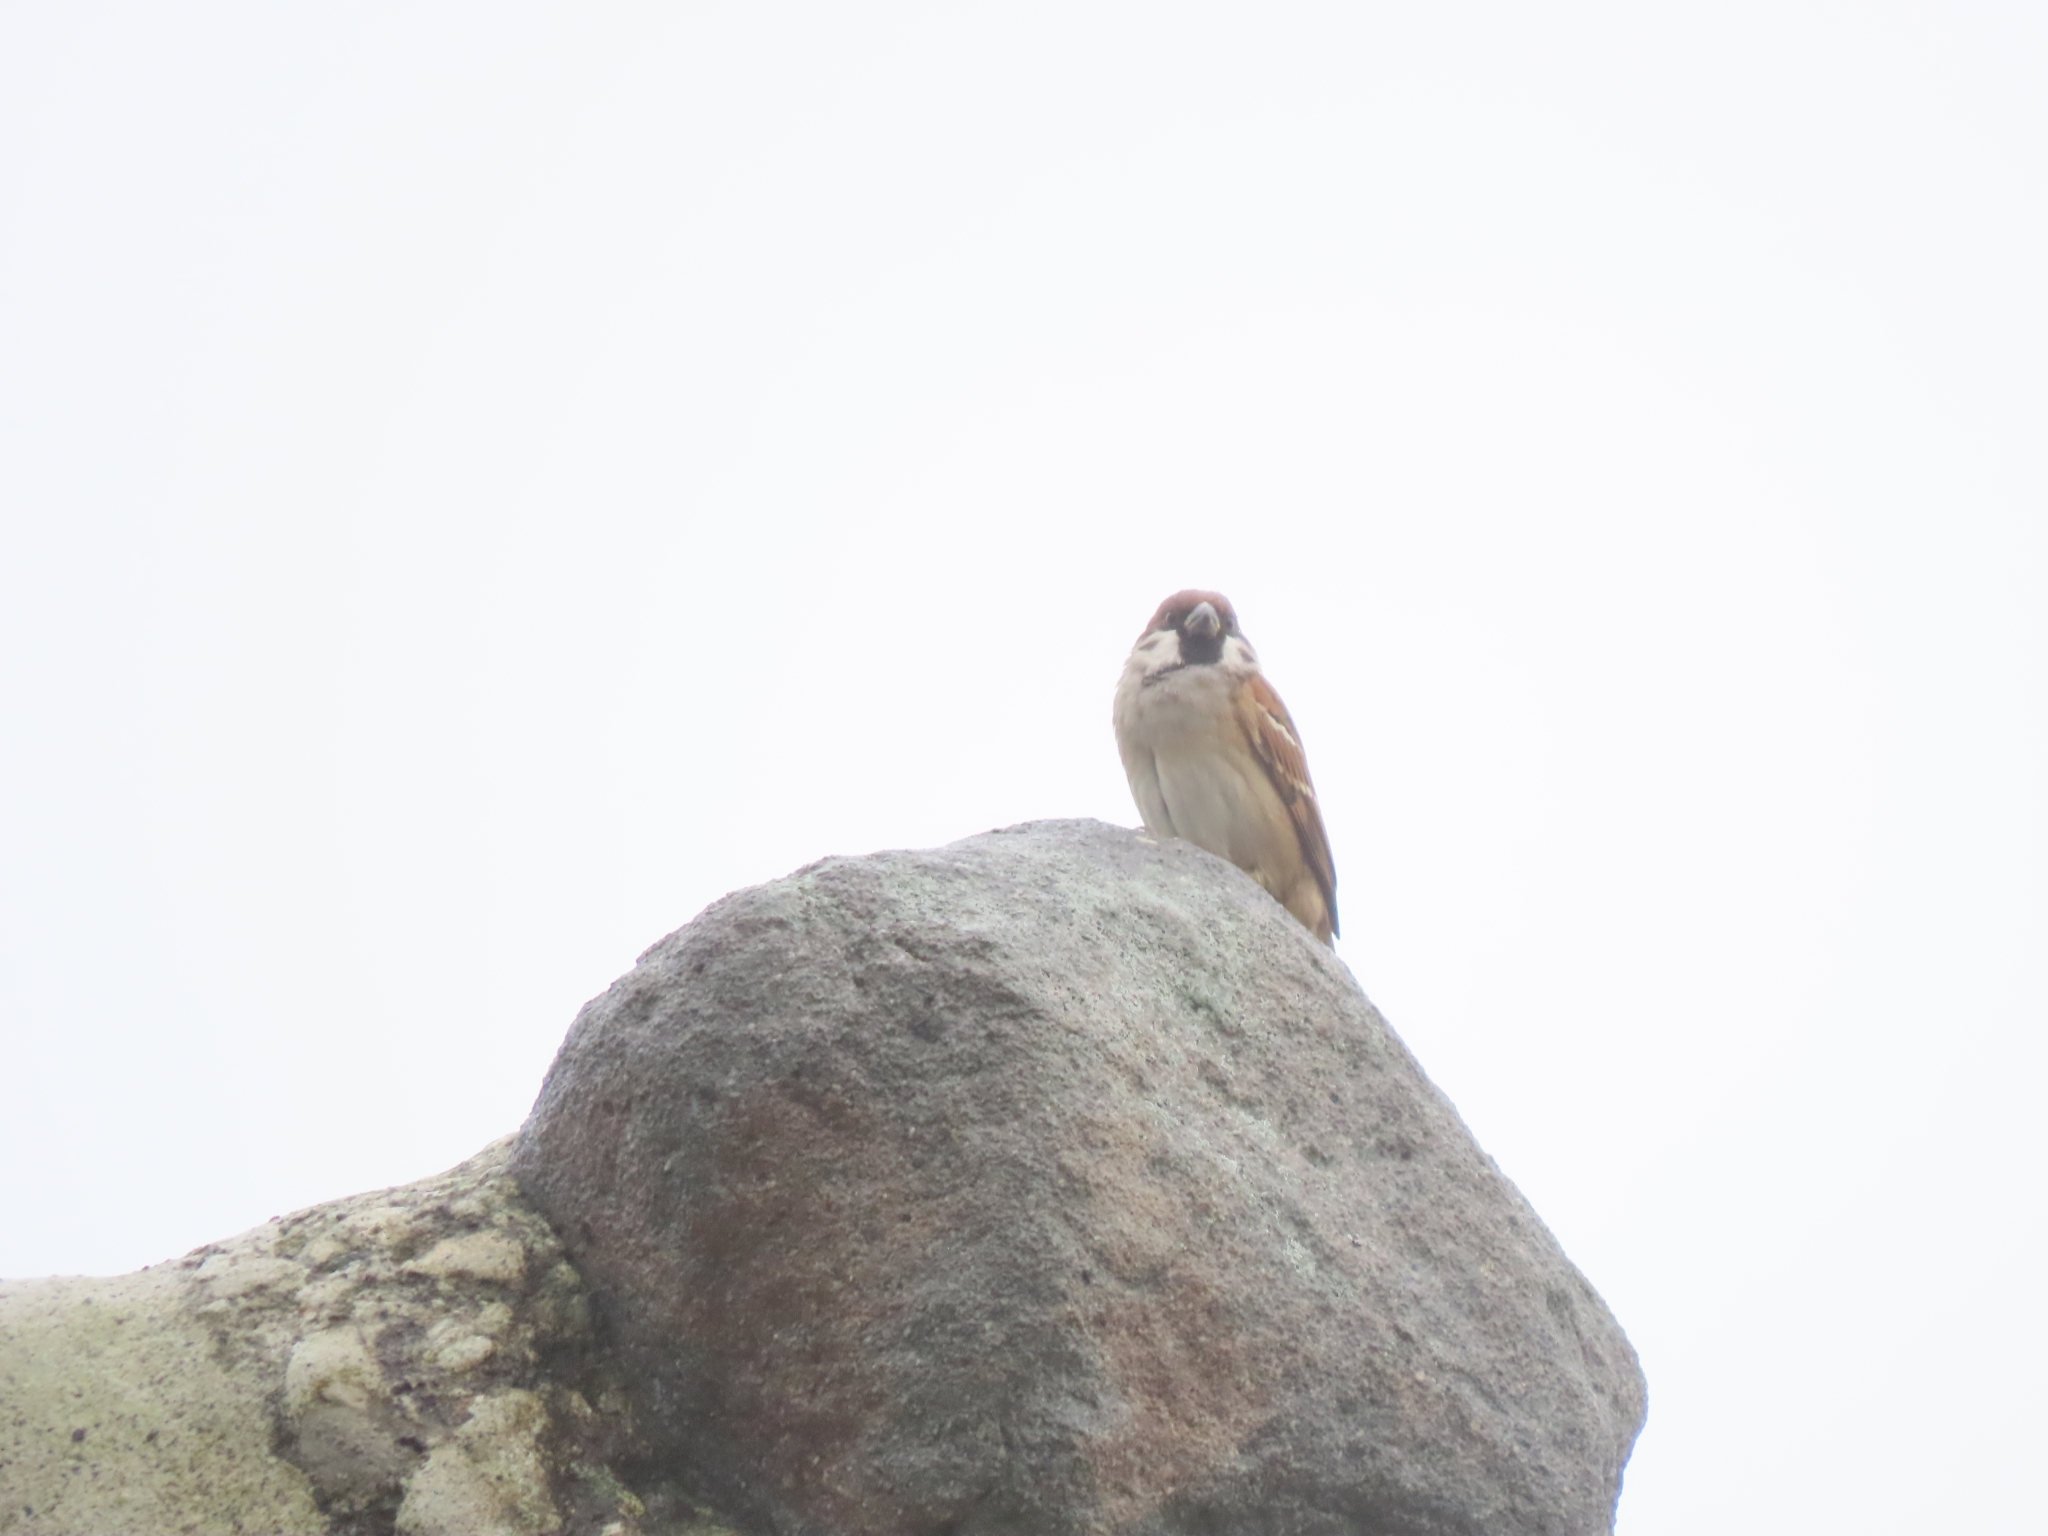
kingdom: Animalia
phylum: Chordata
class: Aves
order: Passeriformes
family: Passeridae
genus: Passer
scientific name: Passer montanus
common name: Eurasian tree sparrow
